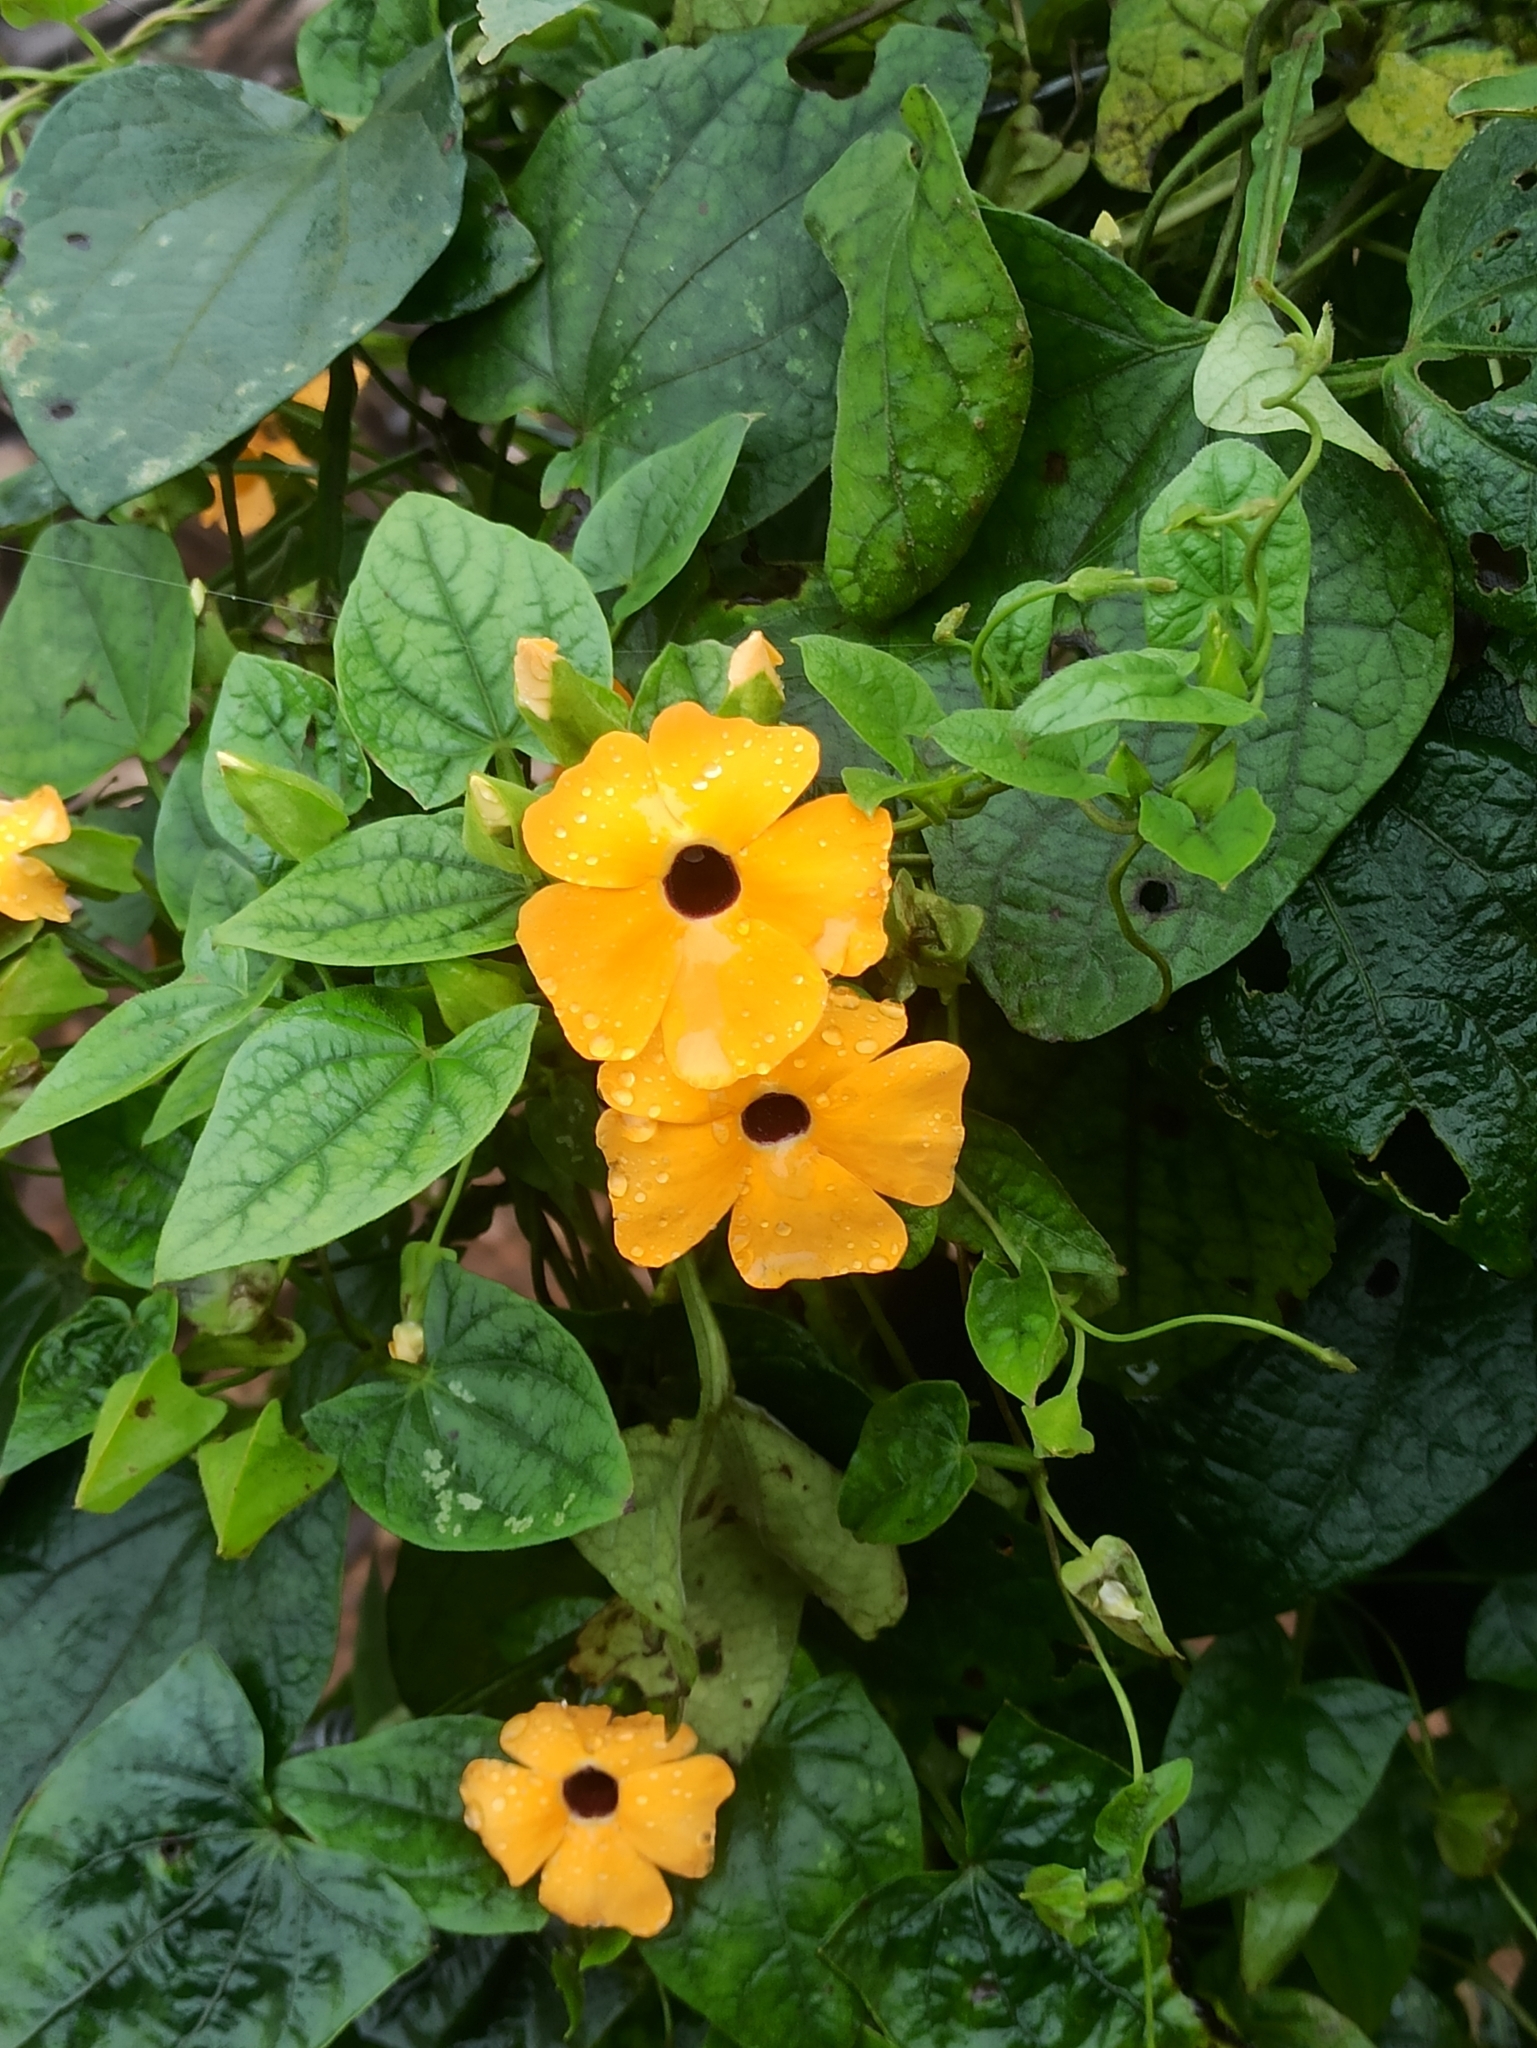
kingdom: Plantae
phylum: Tracheophyta
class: Magnoliopsida
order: Lamiales
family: Acanthaceae
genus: Thunbergia
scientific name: Thunbergia alata
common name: Blackeyed susan vine
